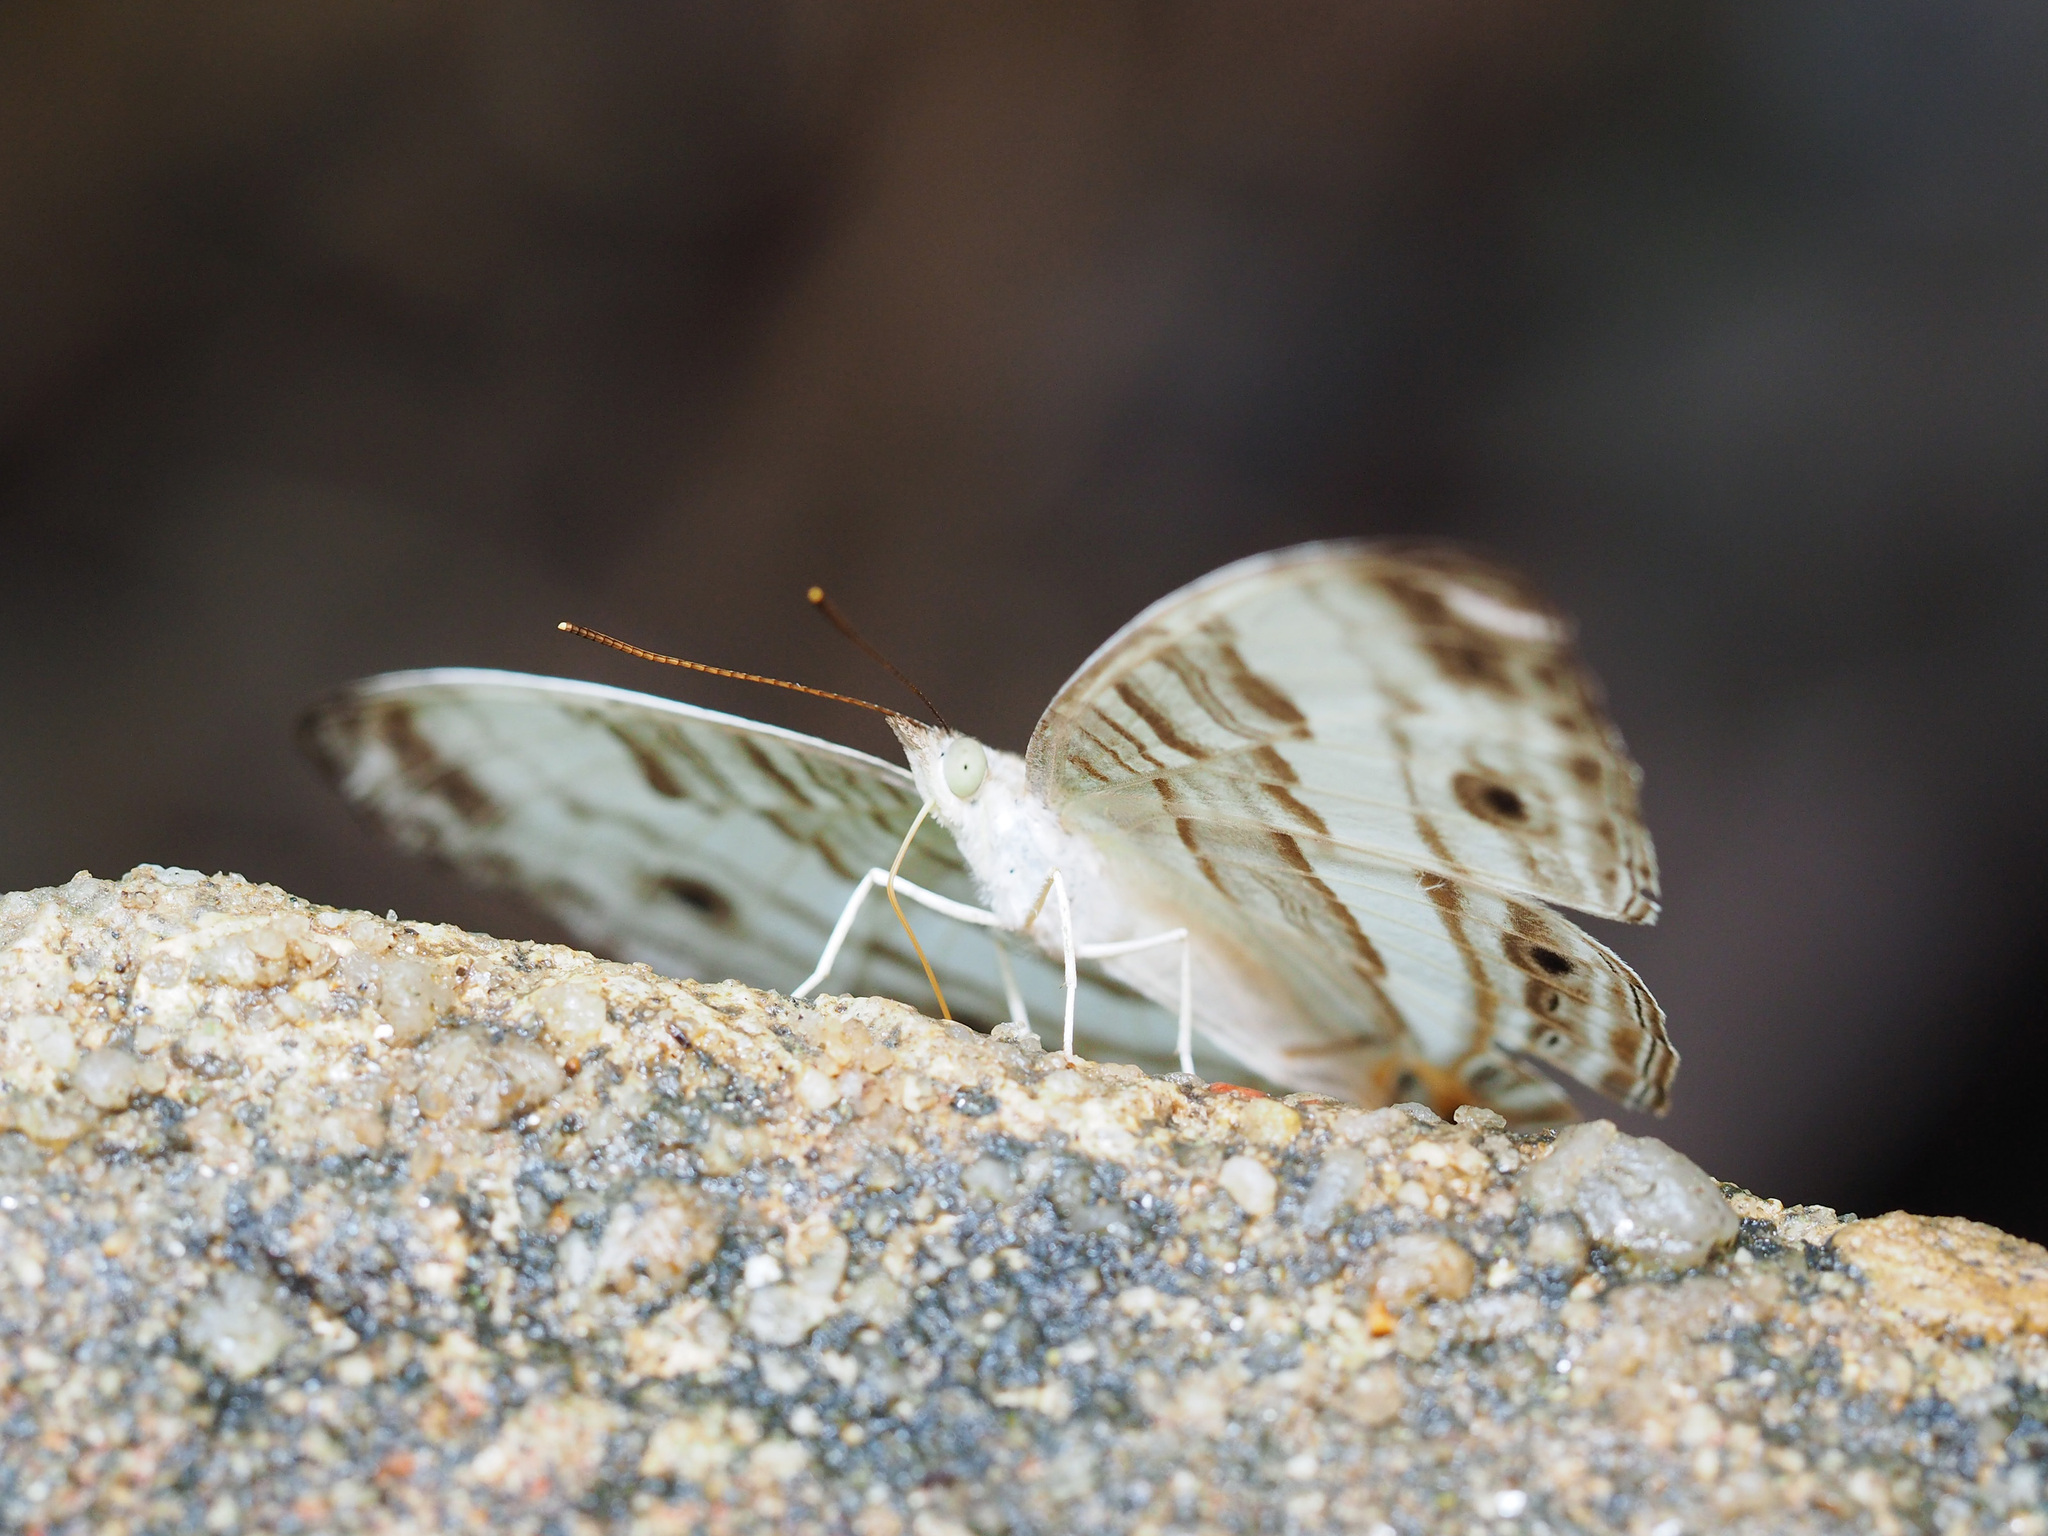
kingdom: Animalia
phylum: Arthropoda
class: Insecta
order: Lepidoptera
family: Nymphalidae
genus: Cyrestis
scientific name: Cyrestis cocles
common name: Marbled map
